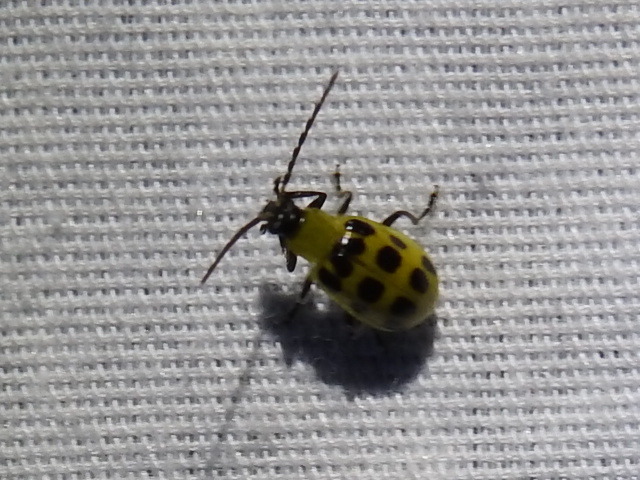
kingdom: Animalia
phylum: Arthropoda
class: Insecta
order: Coleoptera
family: Chrysomelidae
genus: Diabrotica
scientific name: Diabrotica undecimpunctata
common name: Spotted cucumber beetle
